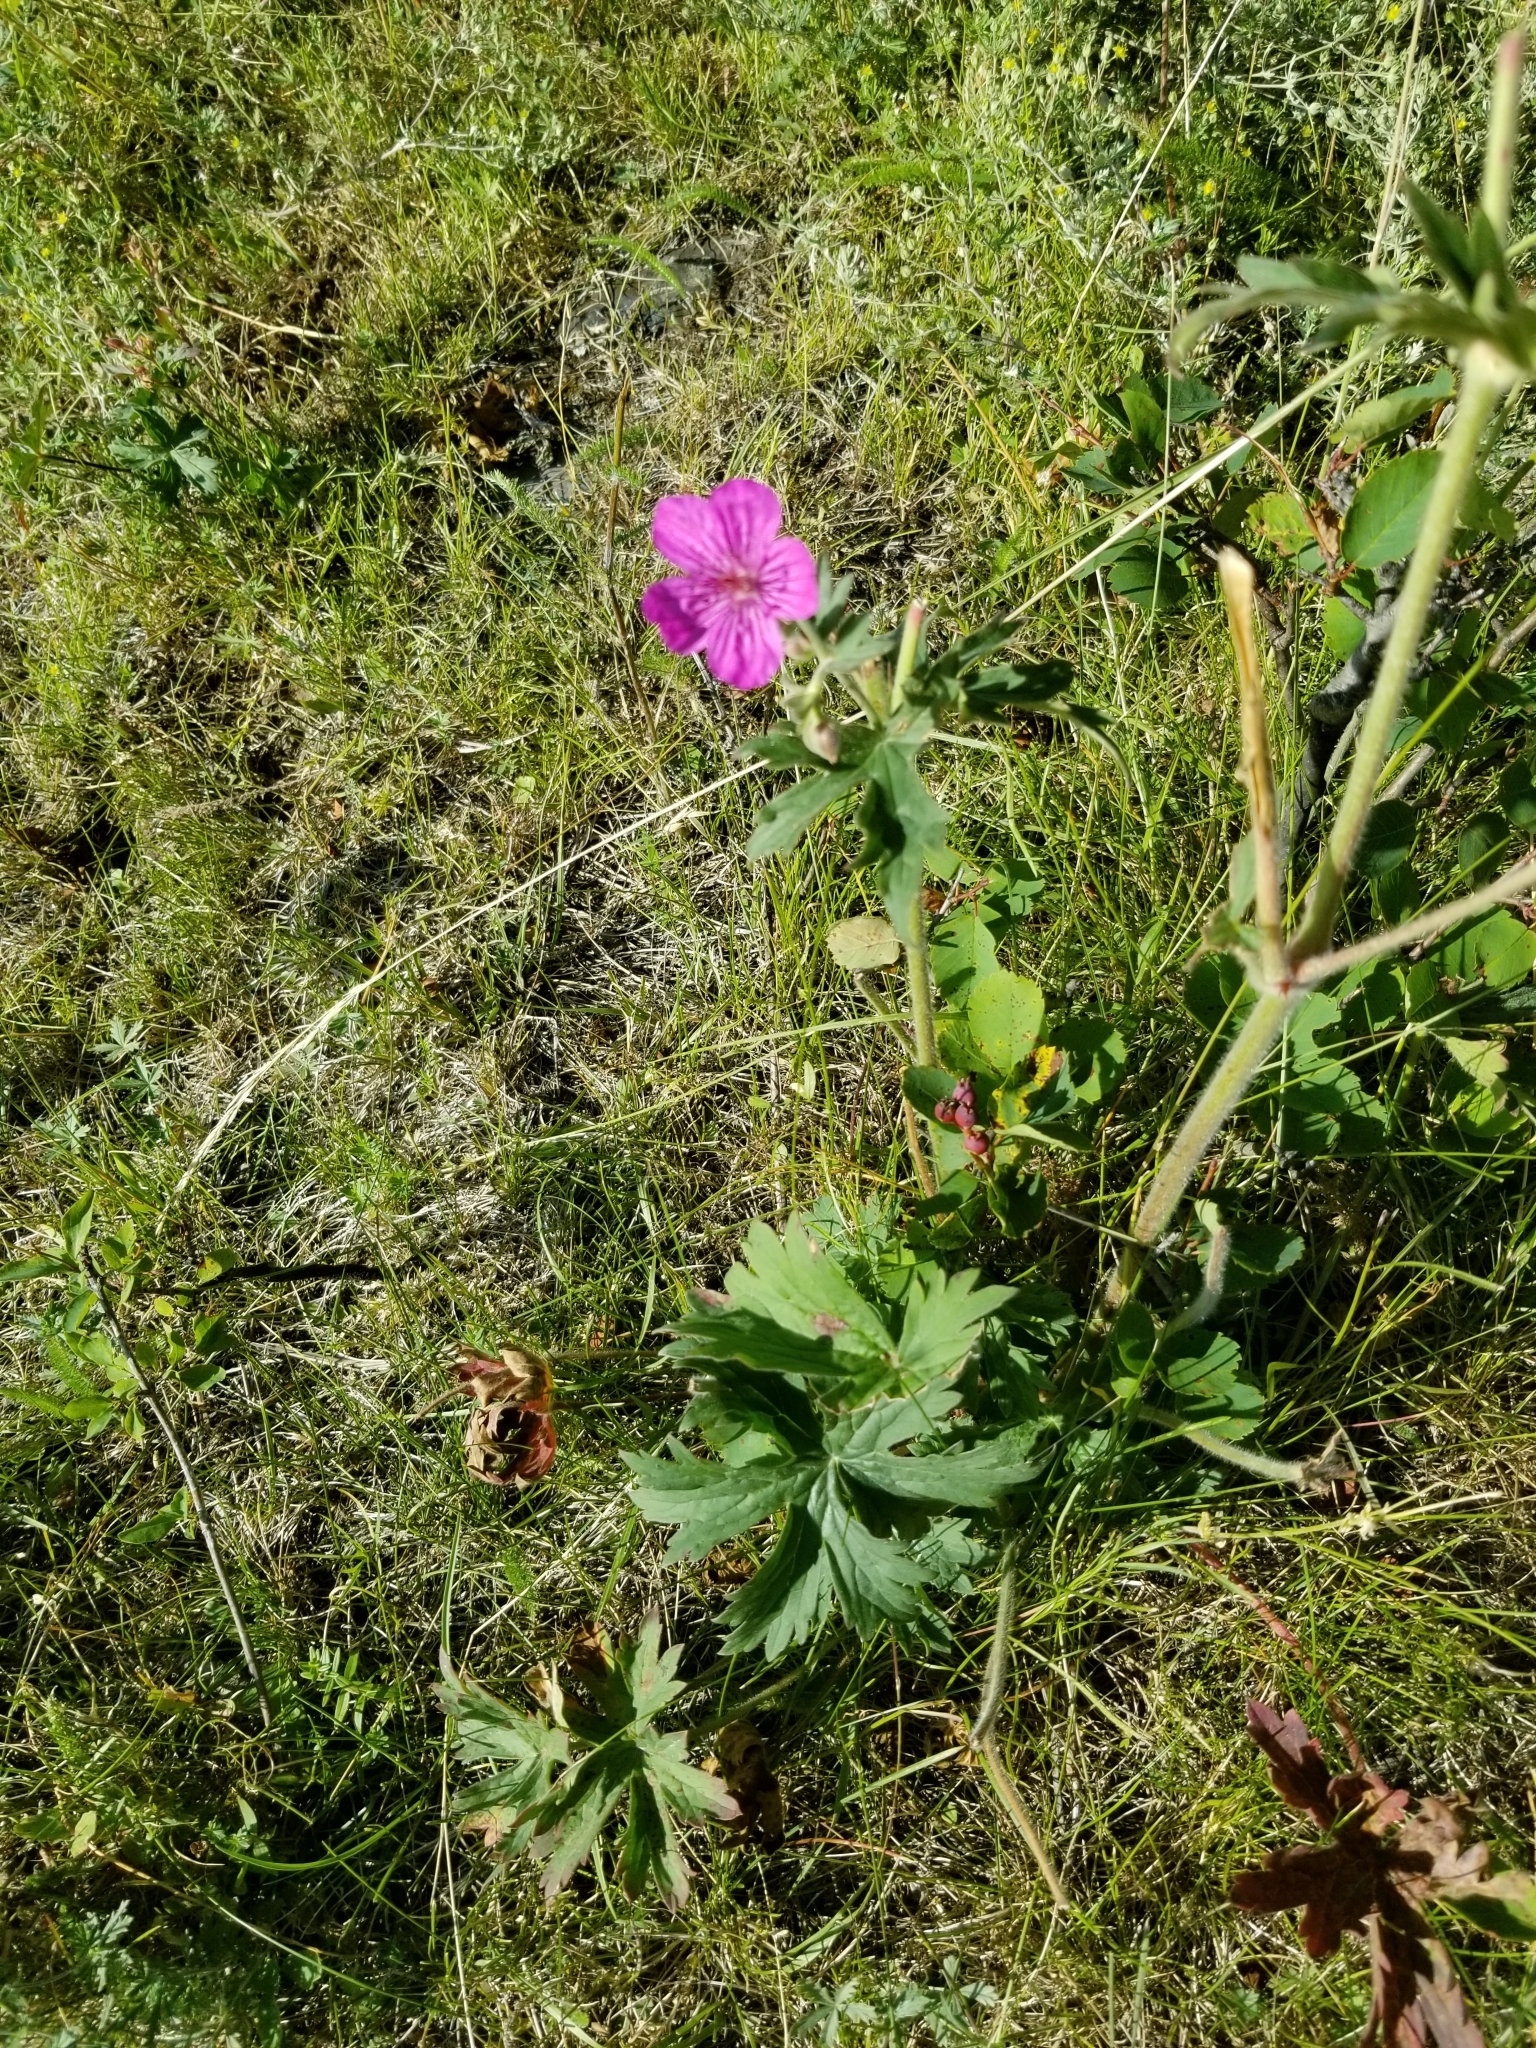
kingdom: Plantae
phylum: Tracheophyta
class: Magnoliopsida
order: Geraniales
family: Geraniaceae
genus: Geranium
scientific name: Geranium viscosissimum
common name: Purple geranium
